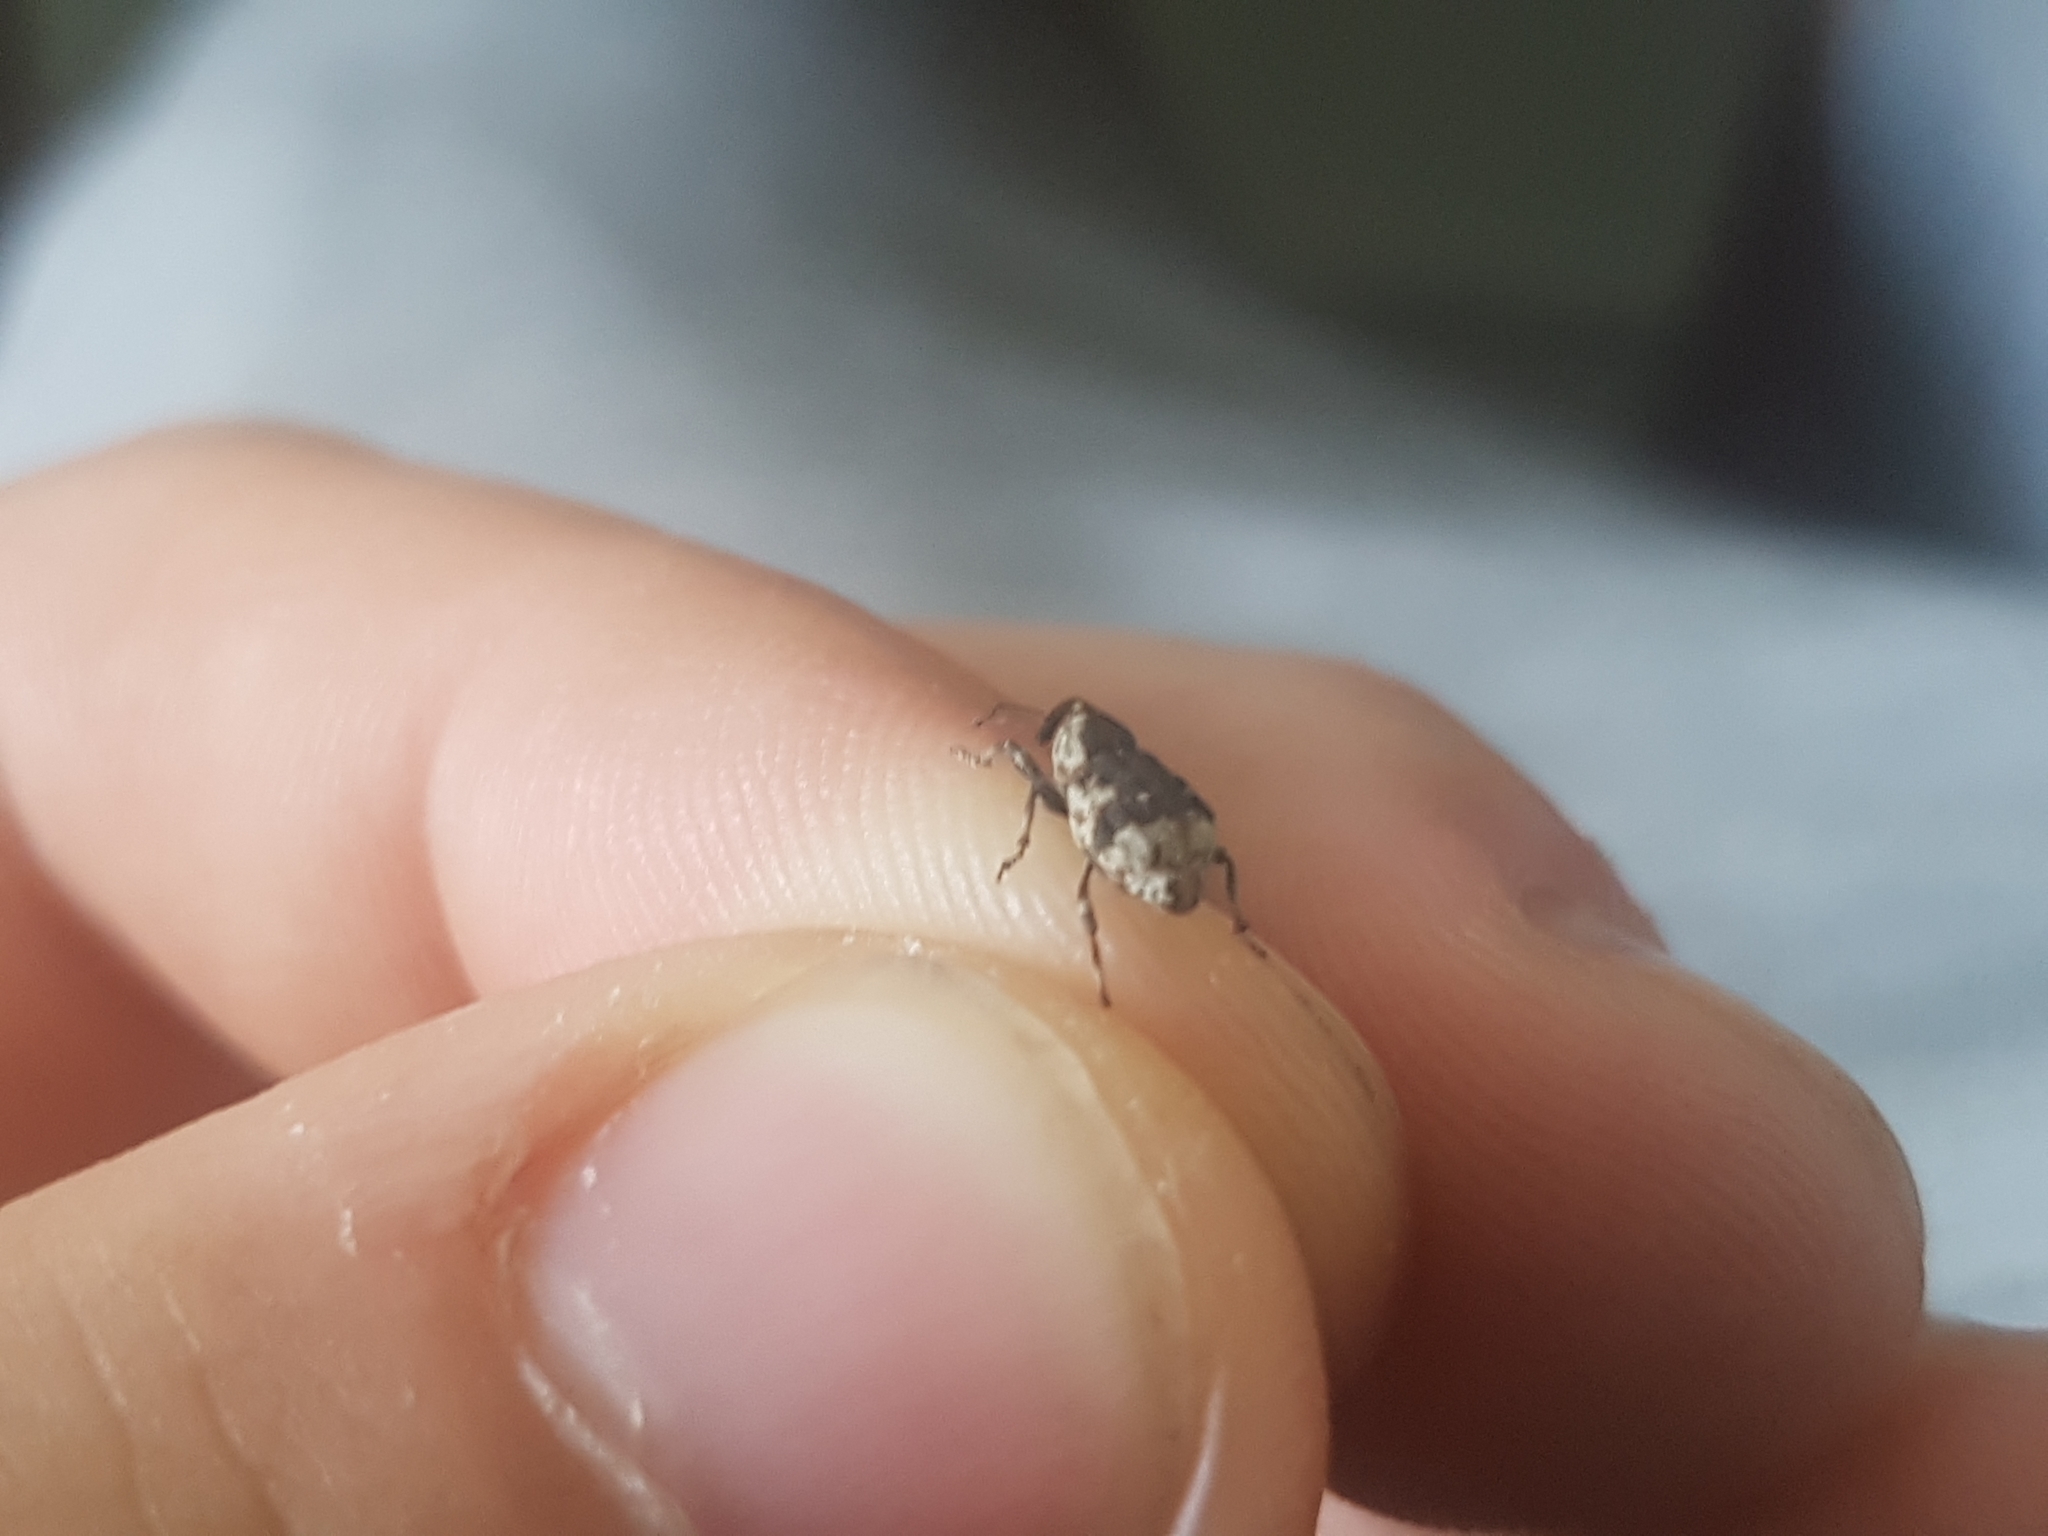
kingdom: Animalia
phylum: Arthropoda
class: Insecta
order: Coleoptera
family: Brachyceridae
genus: Grypus
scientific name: Grypus equiseti
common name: Horsetail weevil
